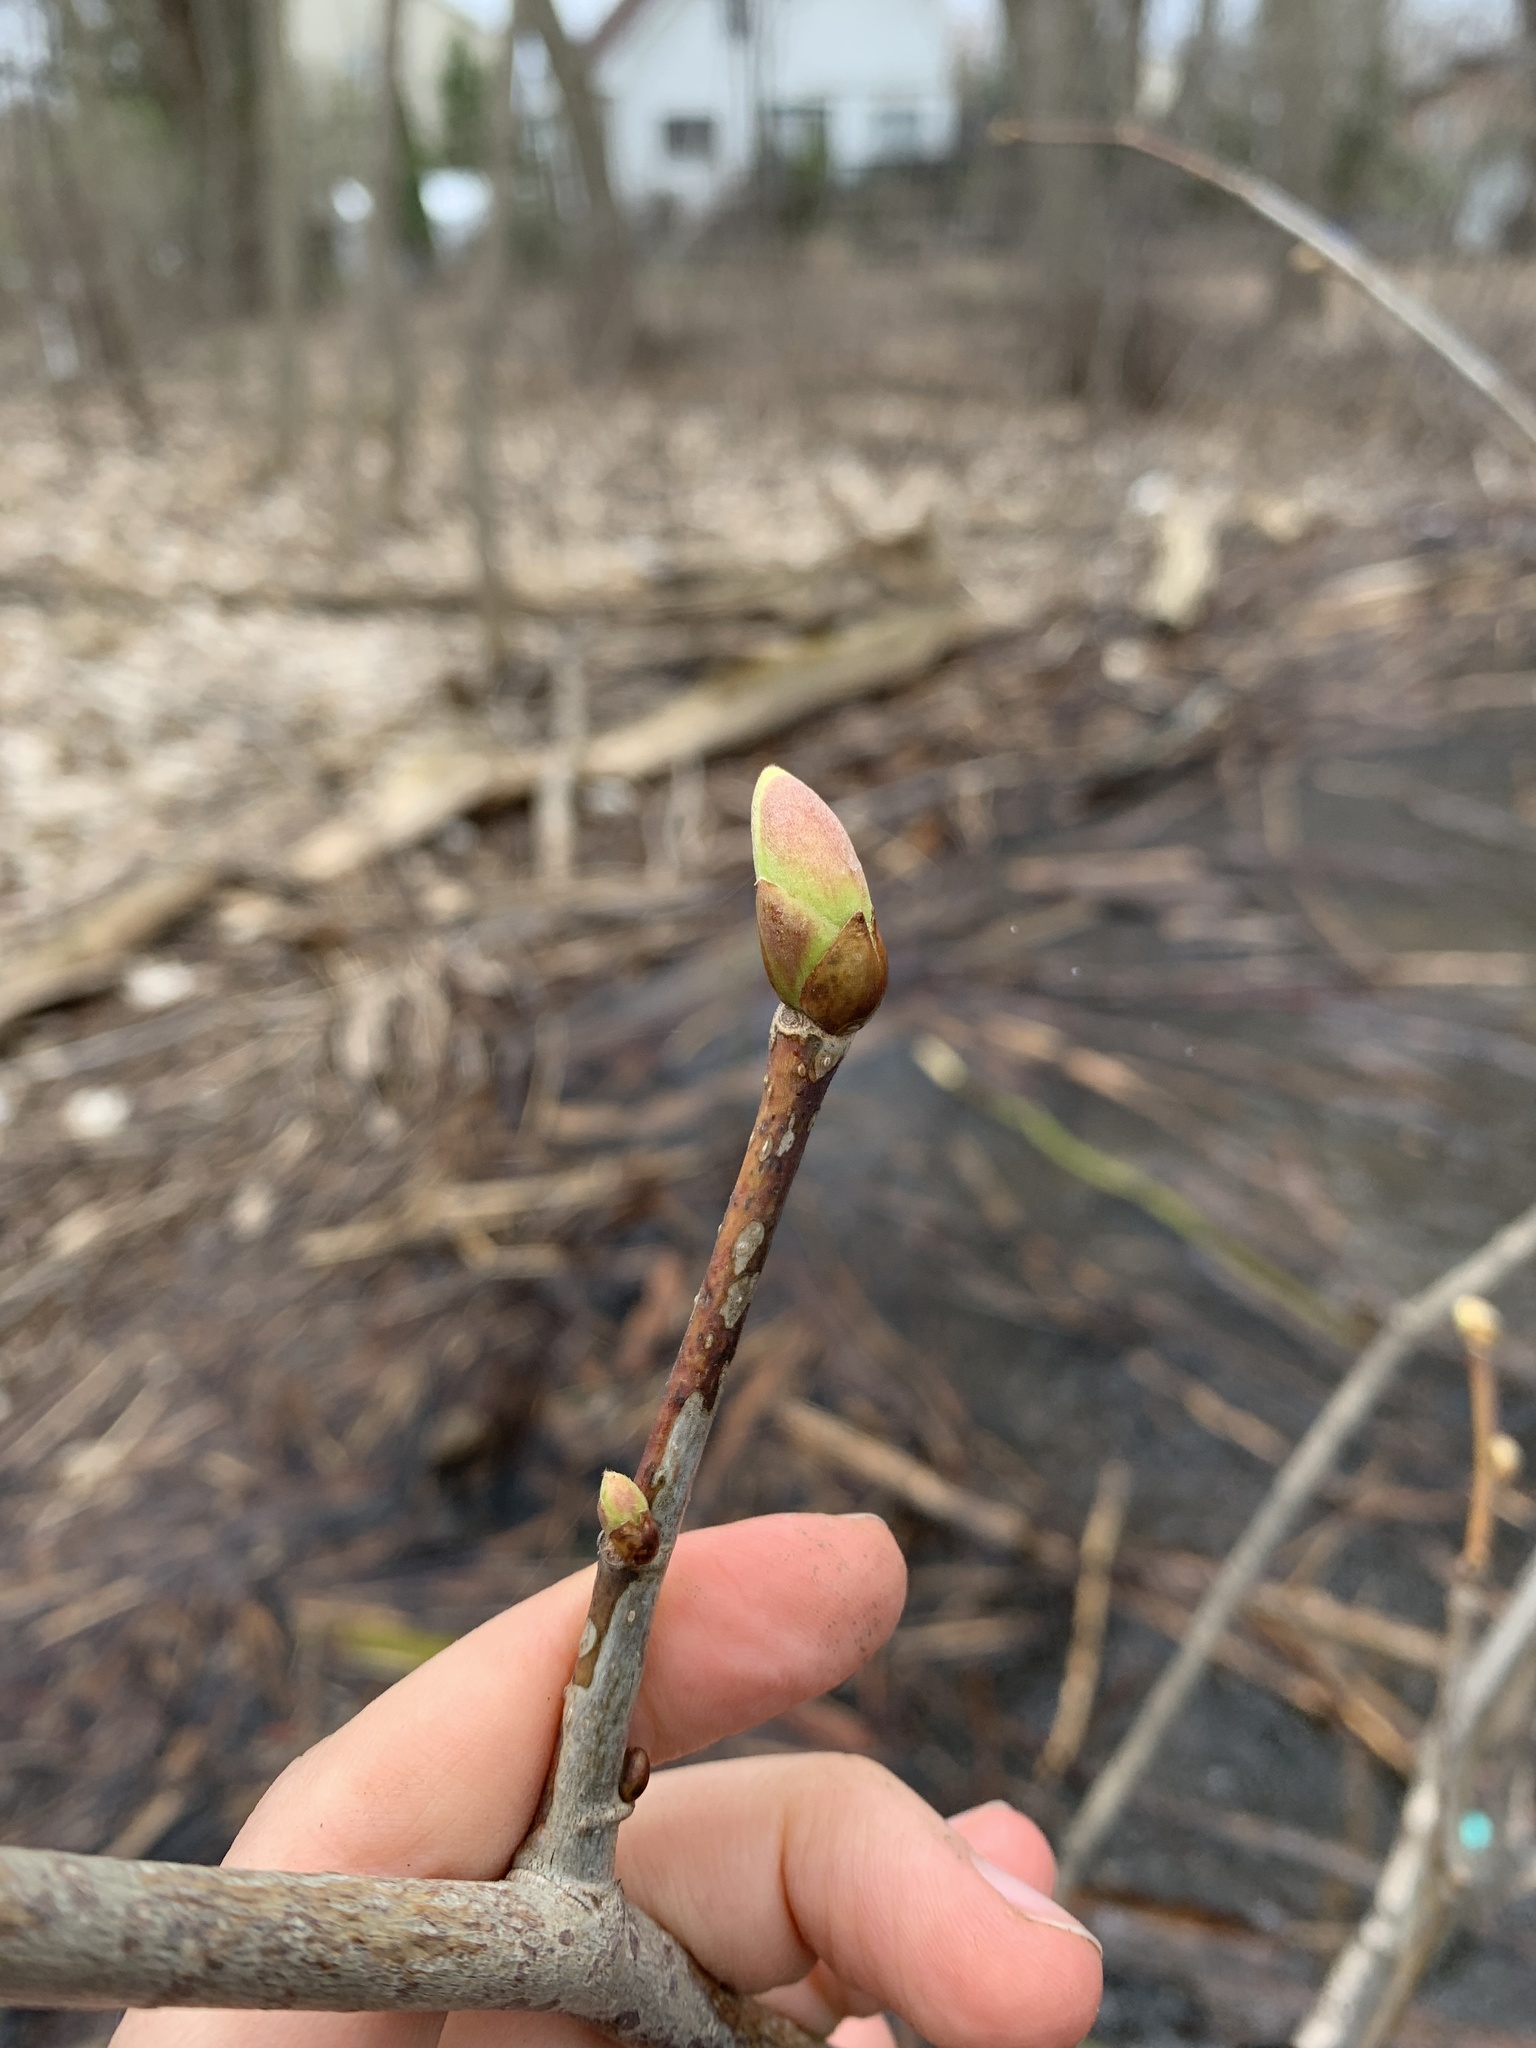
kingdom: Plantae
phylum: Tracheophyta
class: Magnoliopsida
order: Malvales
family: Malvaceae
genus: Tilia
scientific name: Tilia americana
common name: Basswood
